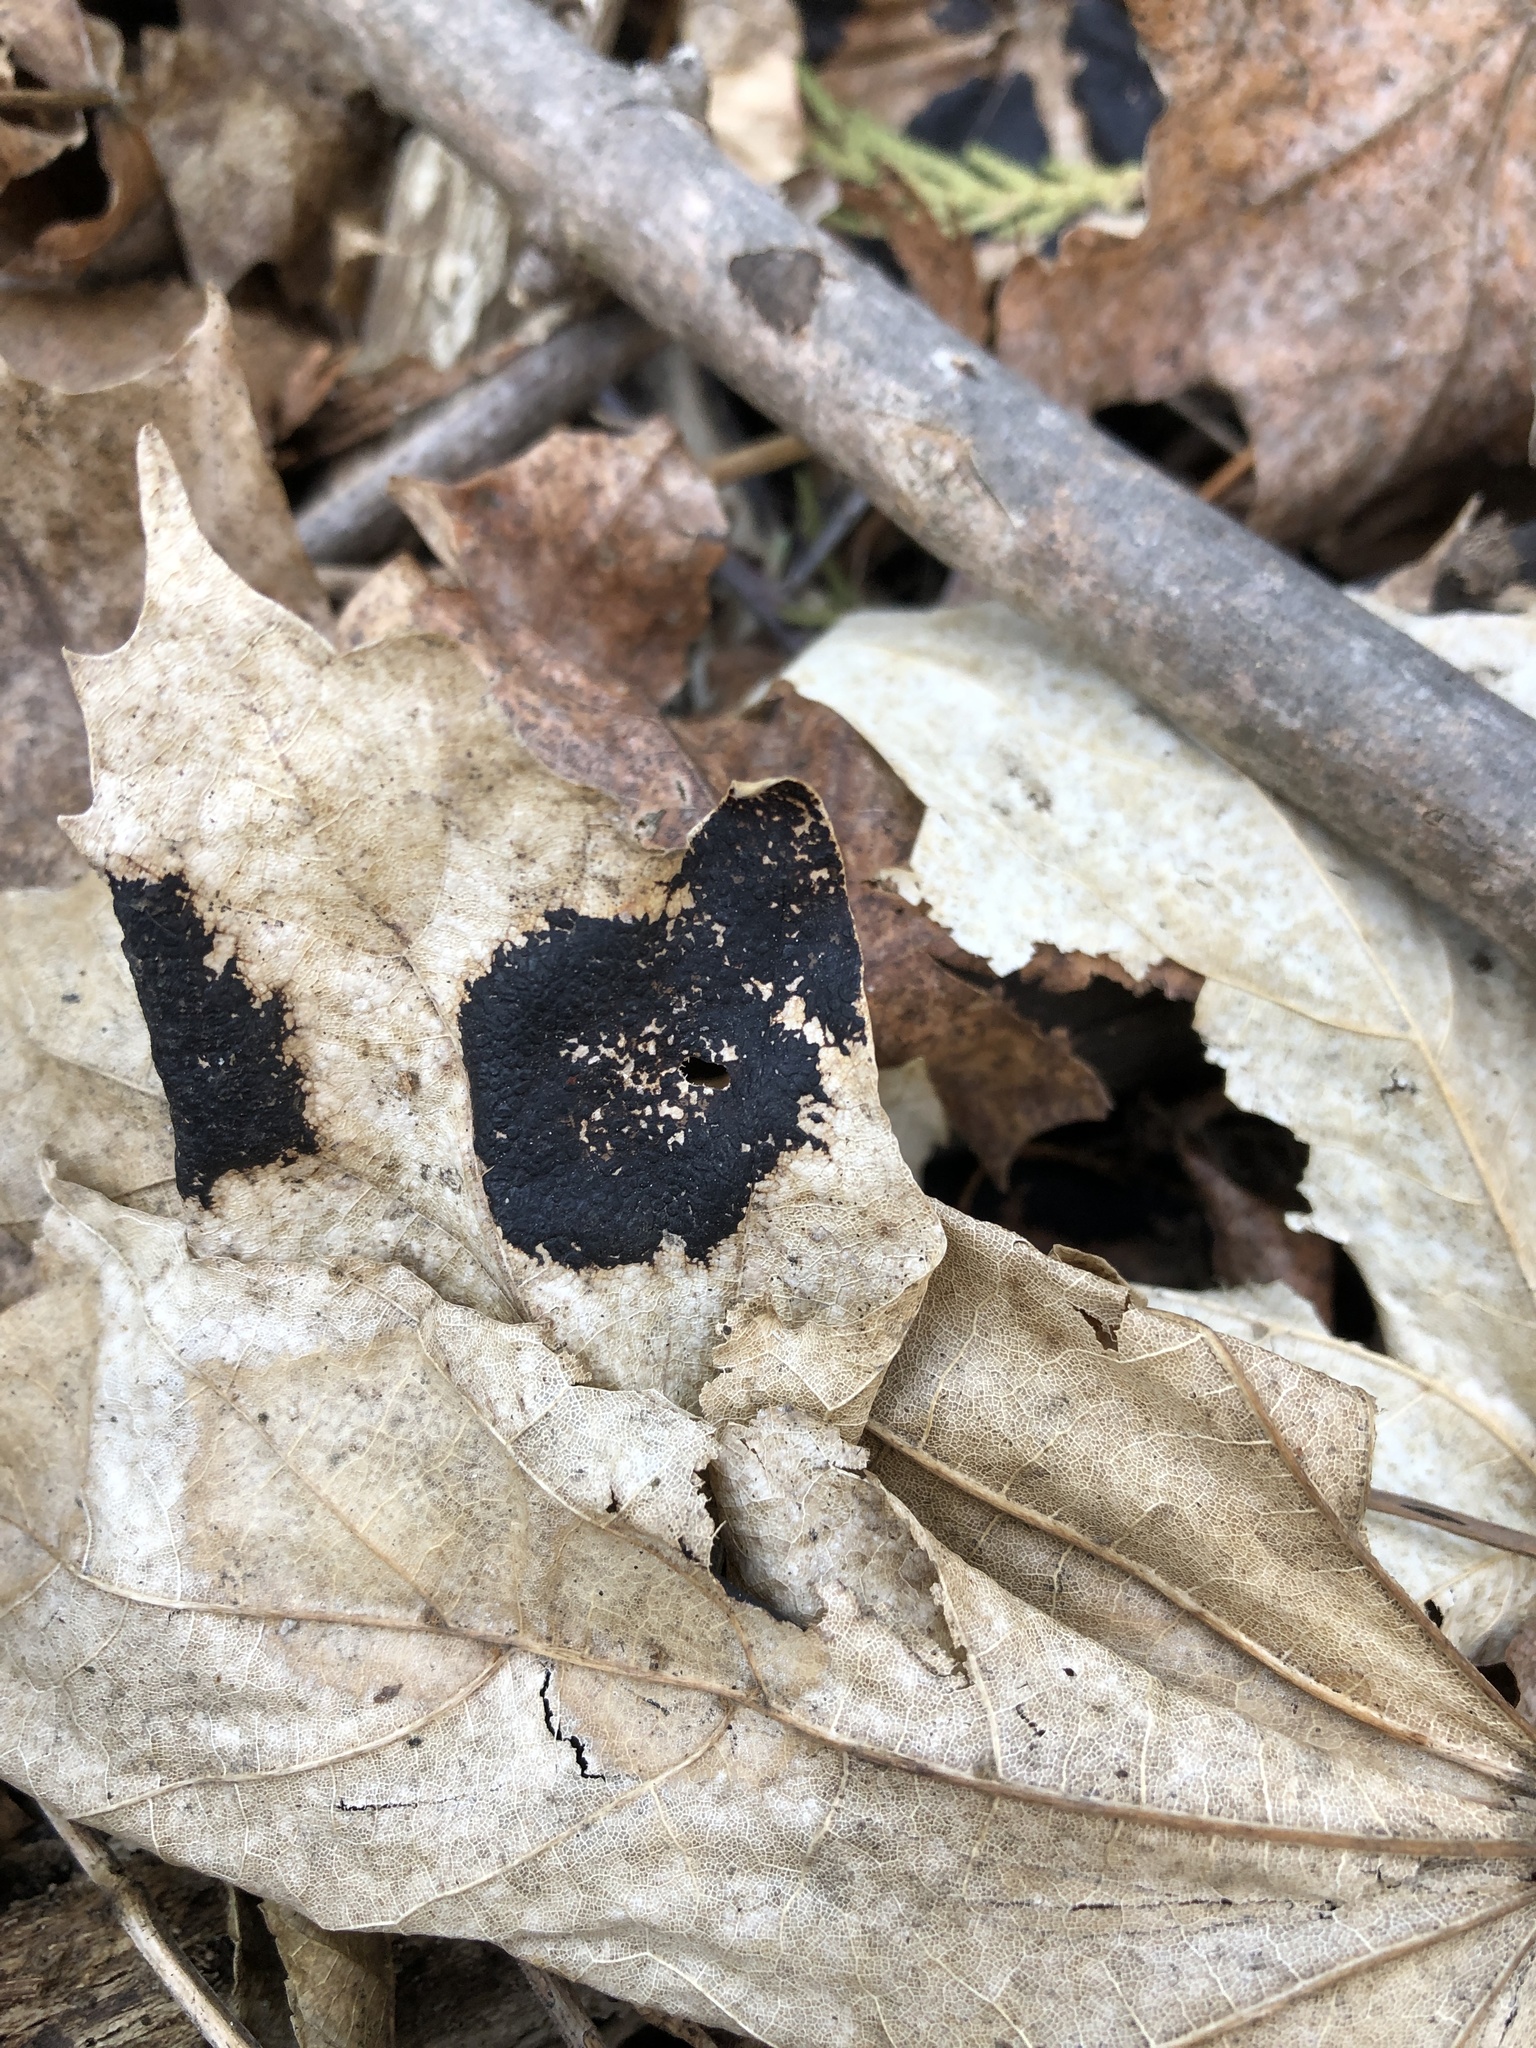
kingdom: Fungi
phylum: Ascomycota
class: Leotiomycetes
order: Rhytismatales
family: Rhytismataceae
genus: Rhytisma
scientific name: Rhytisma acerinum
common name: European tar spot
